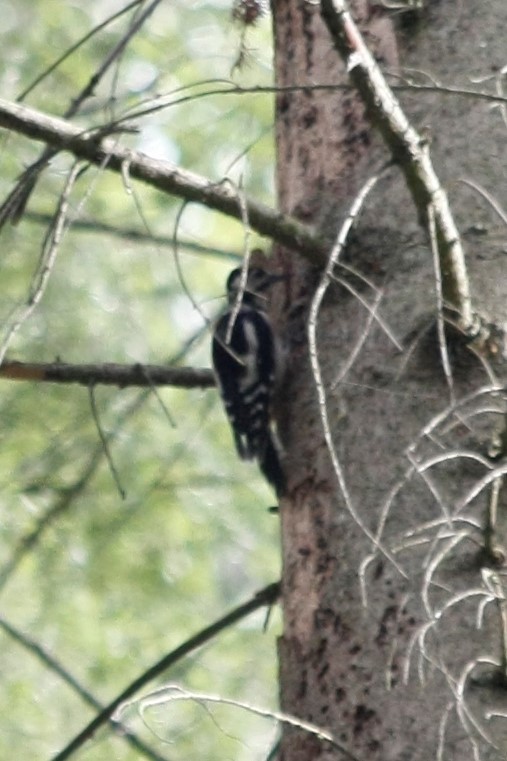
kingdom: Animalia
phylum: Chordata
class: Aves
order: Piciformes
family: Picidae
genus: Dendrocopos
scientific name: Dendrocopos major
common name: Great spotted woodpecker
